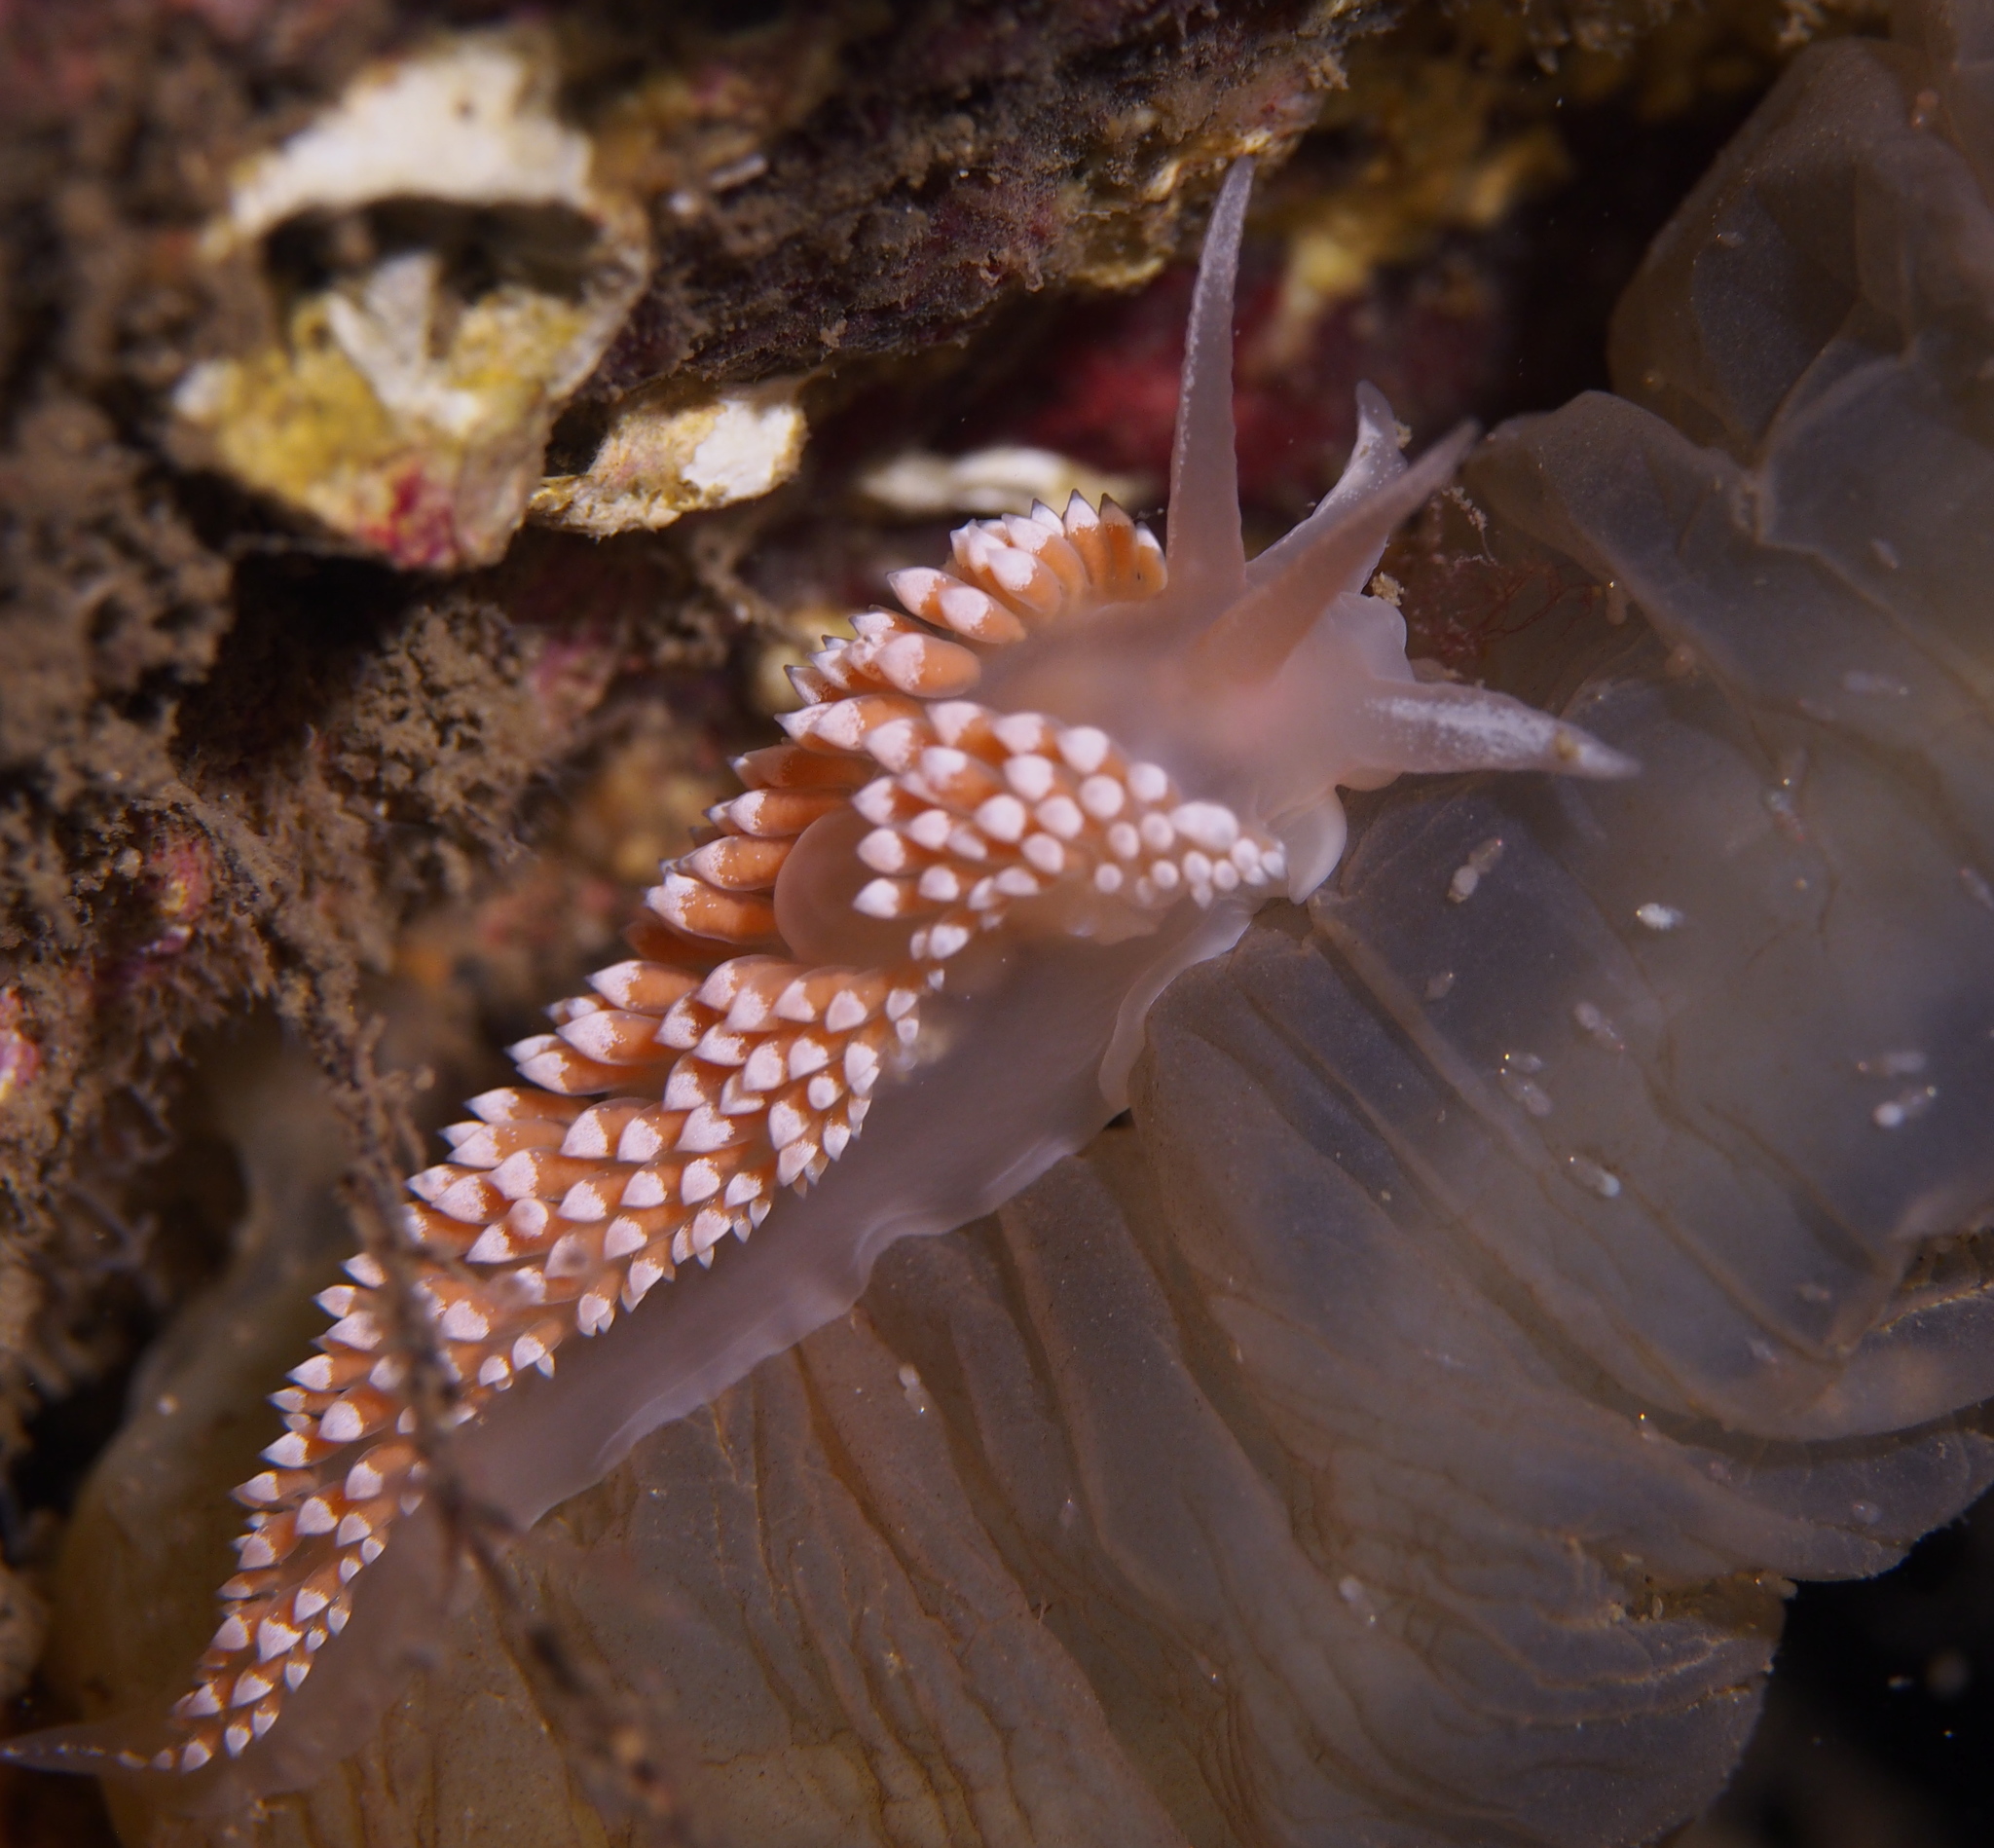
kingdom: Animalia
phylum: Mollusca
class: Gastropoda
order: Nudibranchia
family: Coryphellidae
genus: Coryphella
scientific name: Coryphella verrucosa
